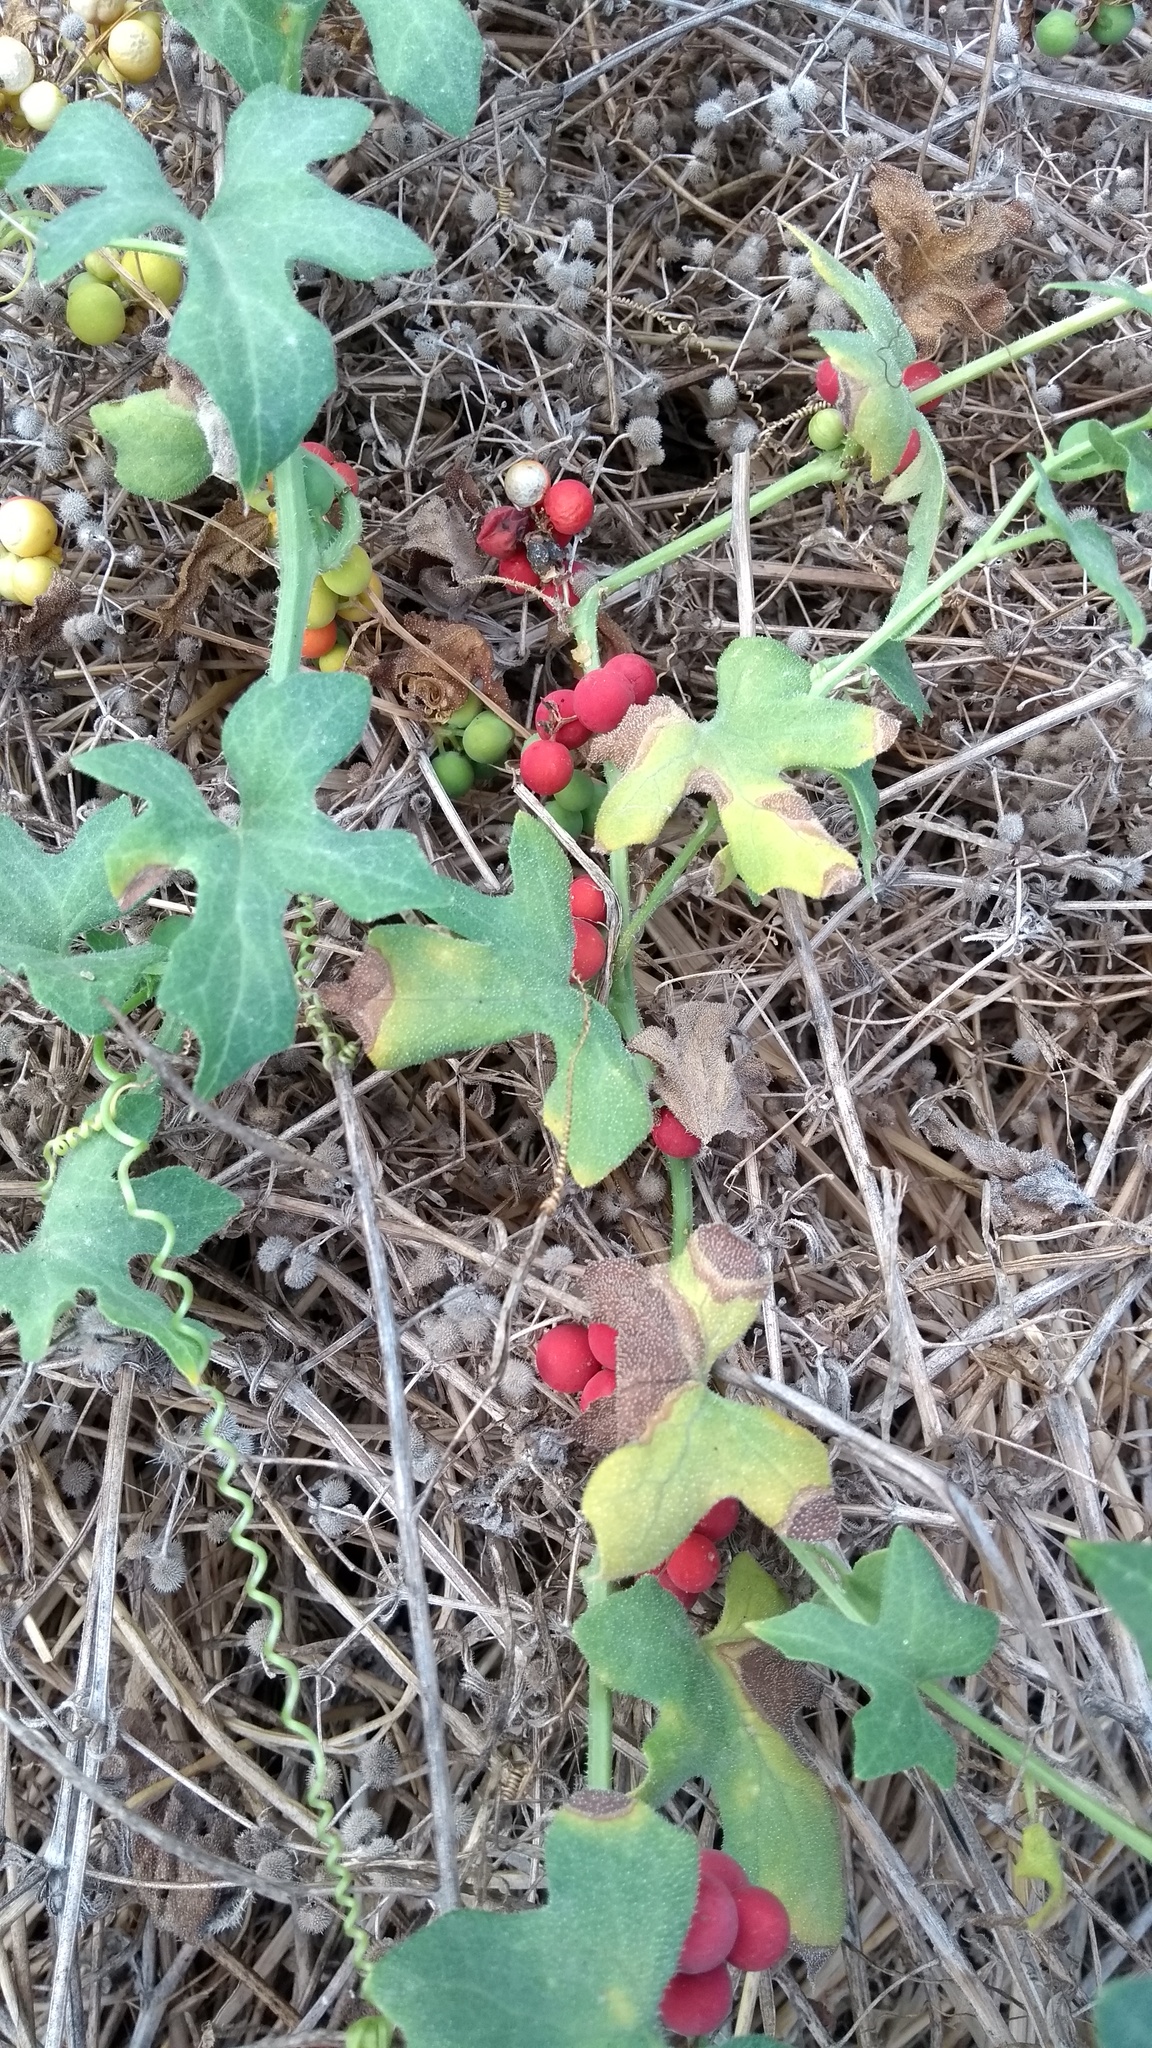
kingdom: Plantae
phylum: Tracheophyta
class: Magnoliopsida
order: Cucurbitales
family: Cucurbitaceae
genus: Bryonia
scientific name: Bryonia cretica
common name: Cretan bryony
